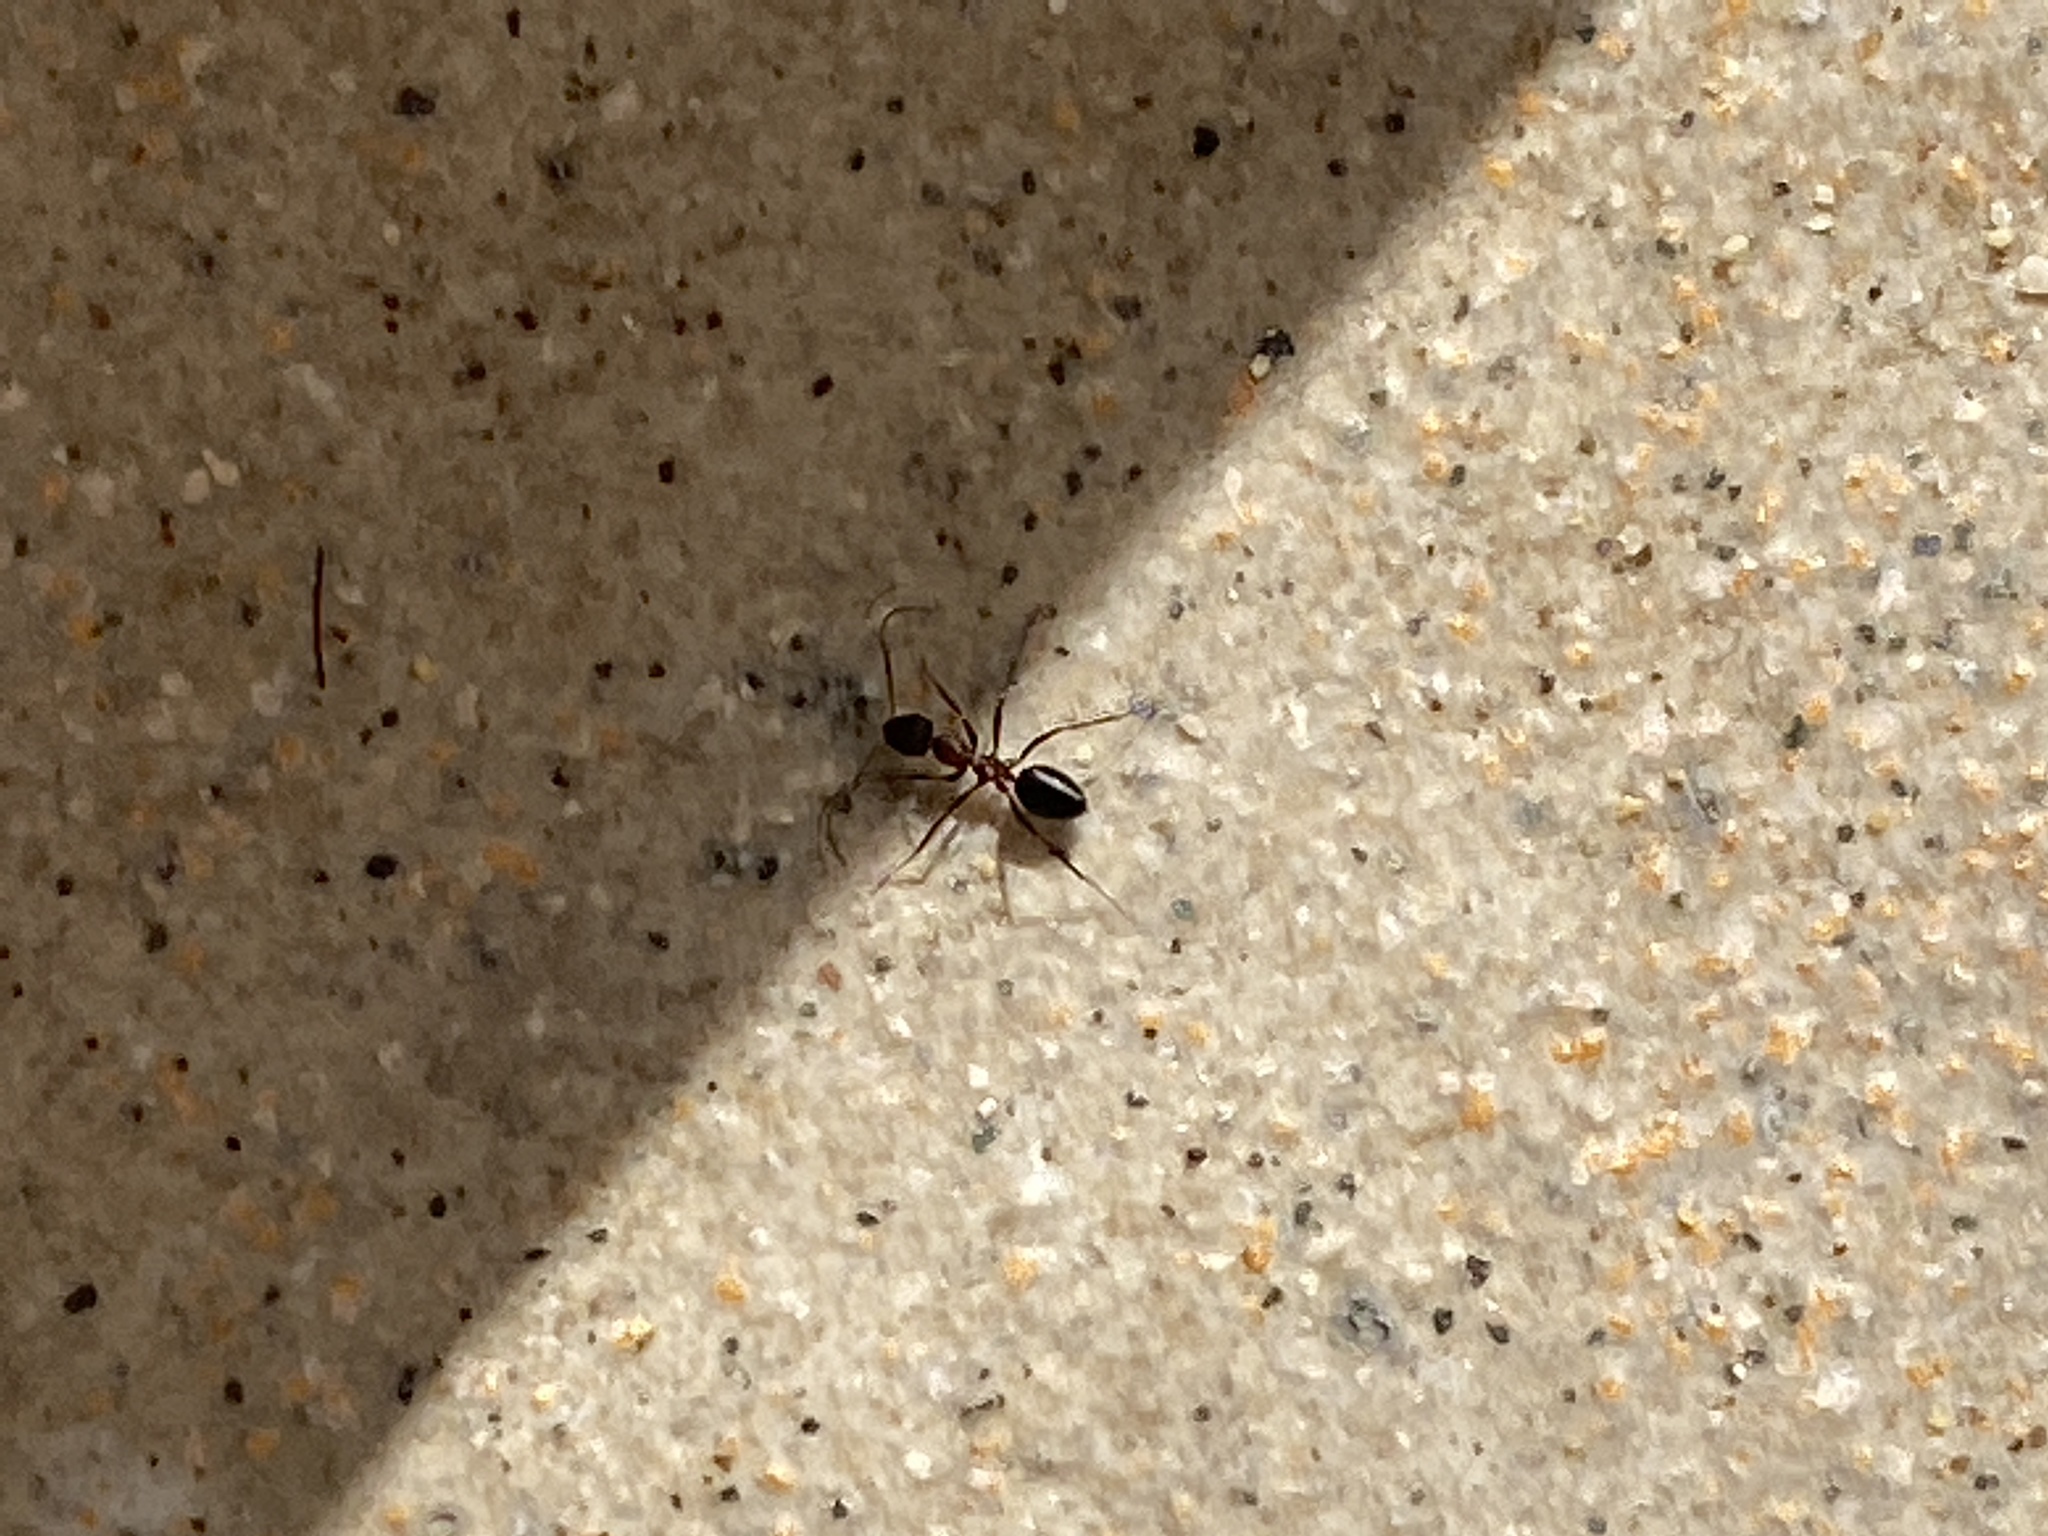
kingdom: Animalia
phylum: Arthropoda
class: Insecta
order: Hymenoptera
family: Formicidae
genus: Lepisiota
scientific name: Lepisiota frauenfeldi
